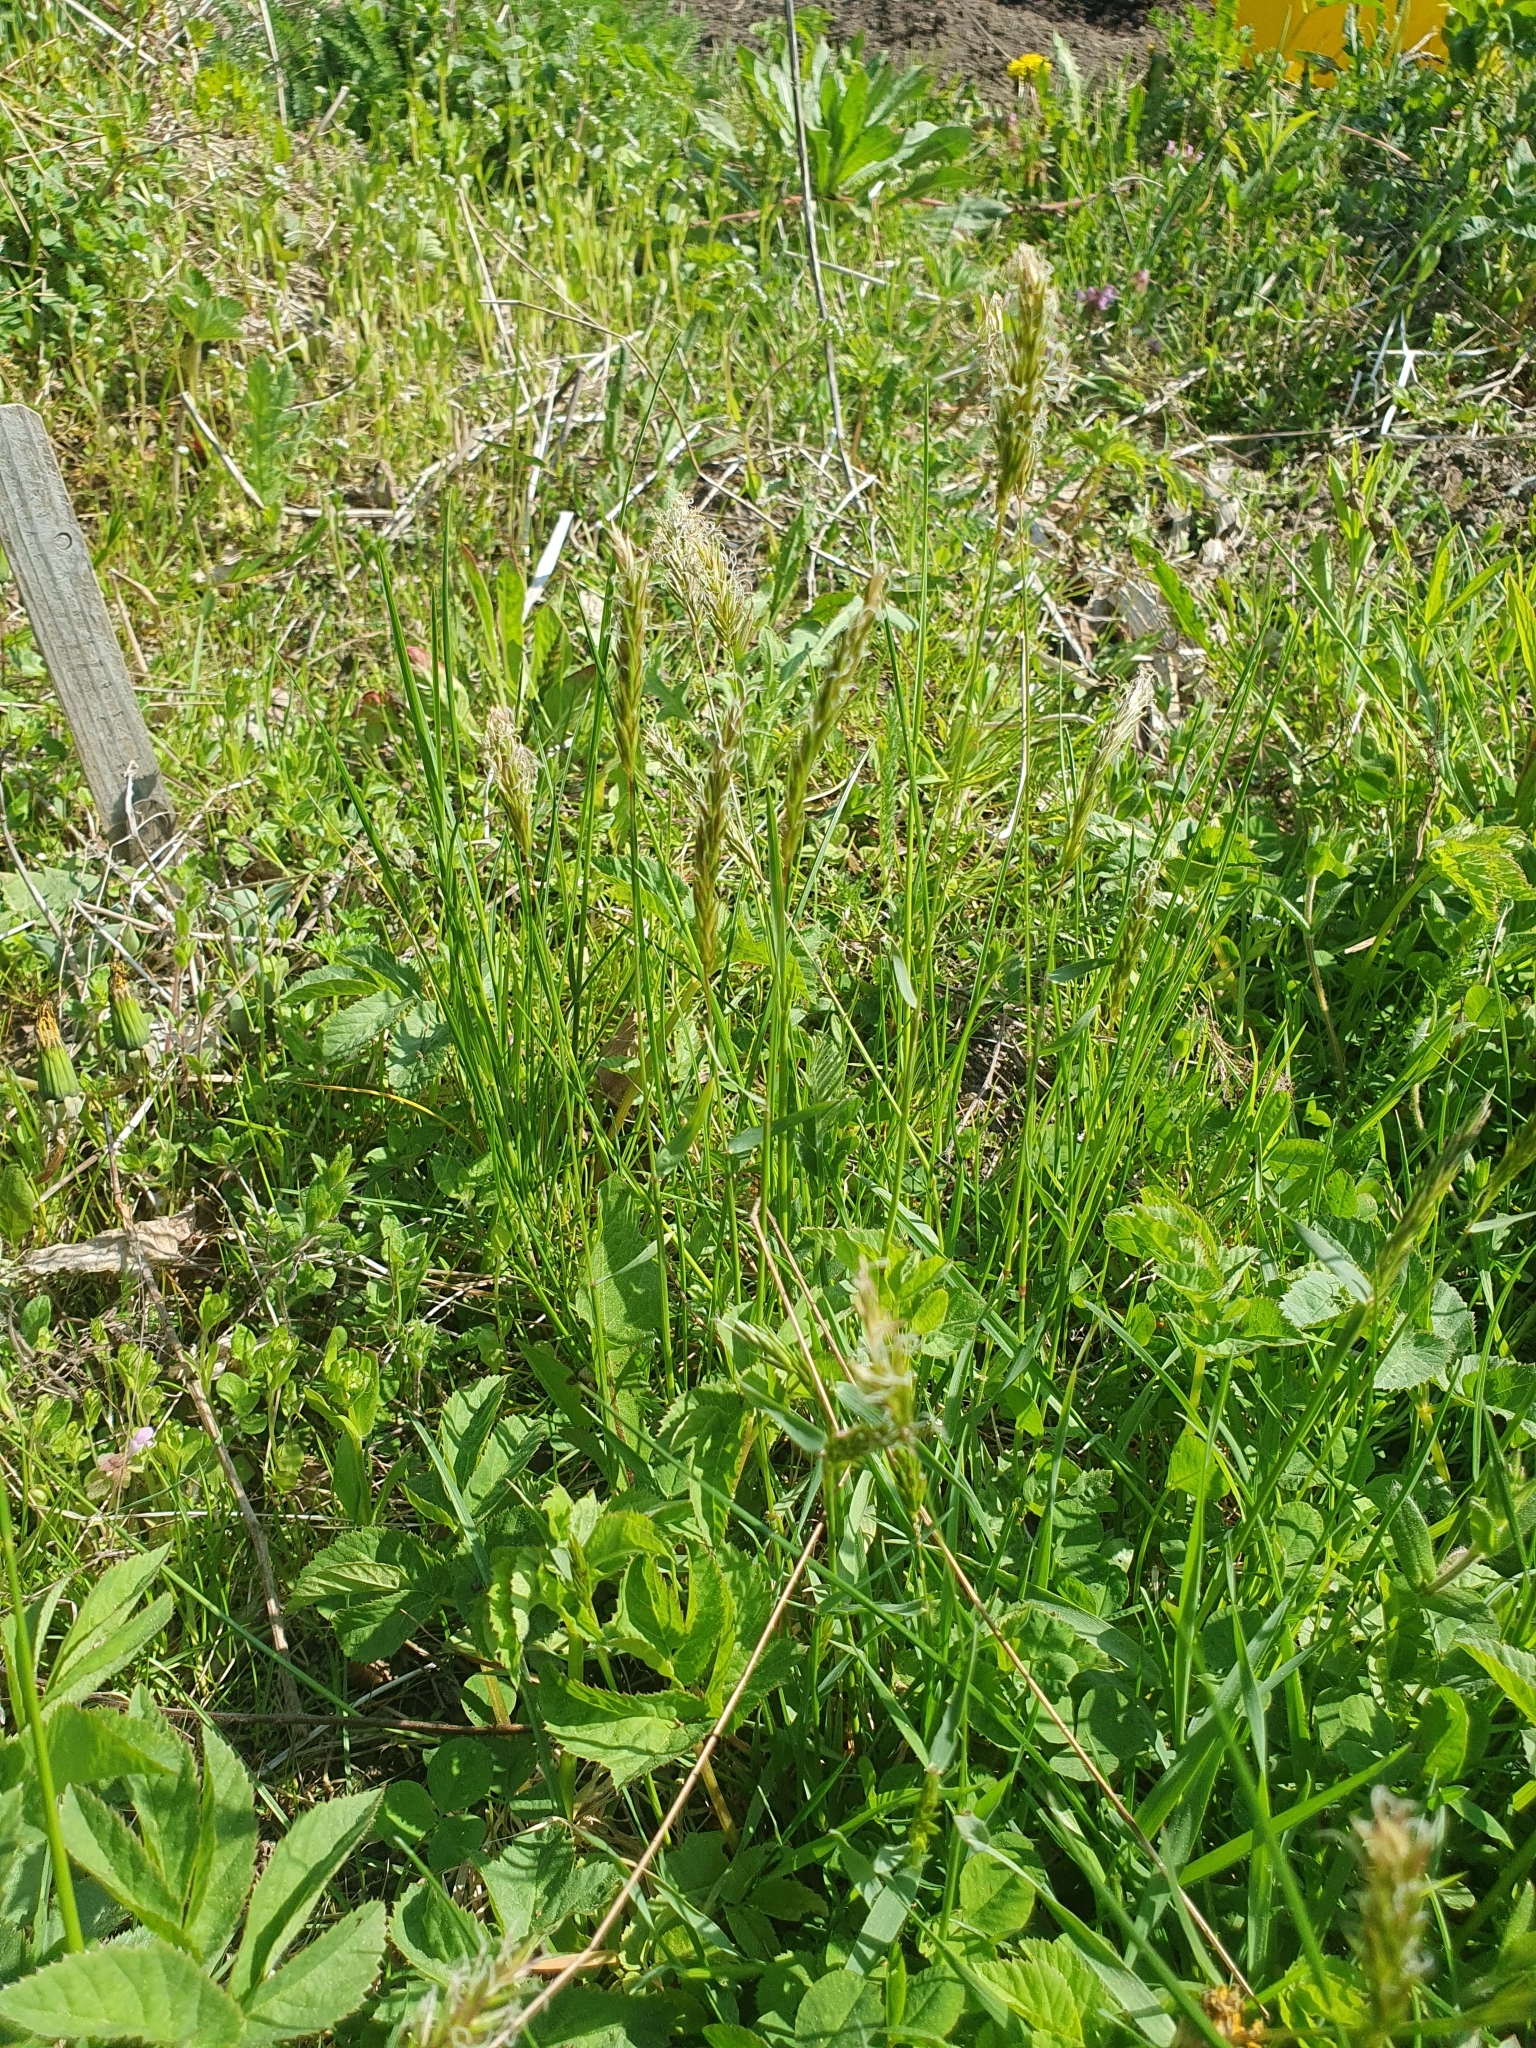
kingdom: Plantae
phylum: Tracheophyta
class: Liliopsida
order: Poales
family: Poaceae
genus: Anthoxanthum
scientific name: Anthoxanthum odoratum
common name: Sweet vernalgrass
